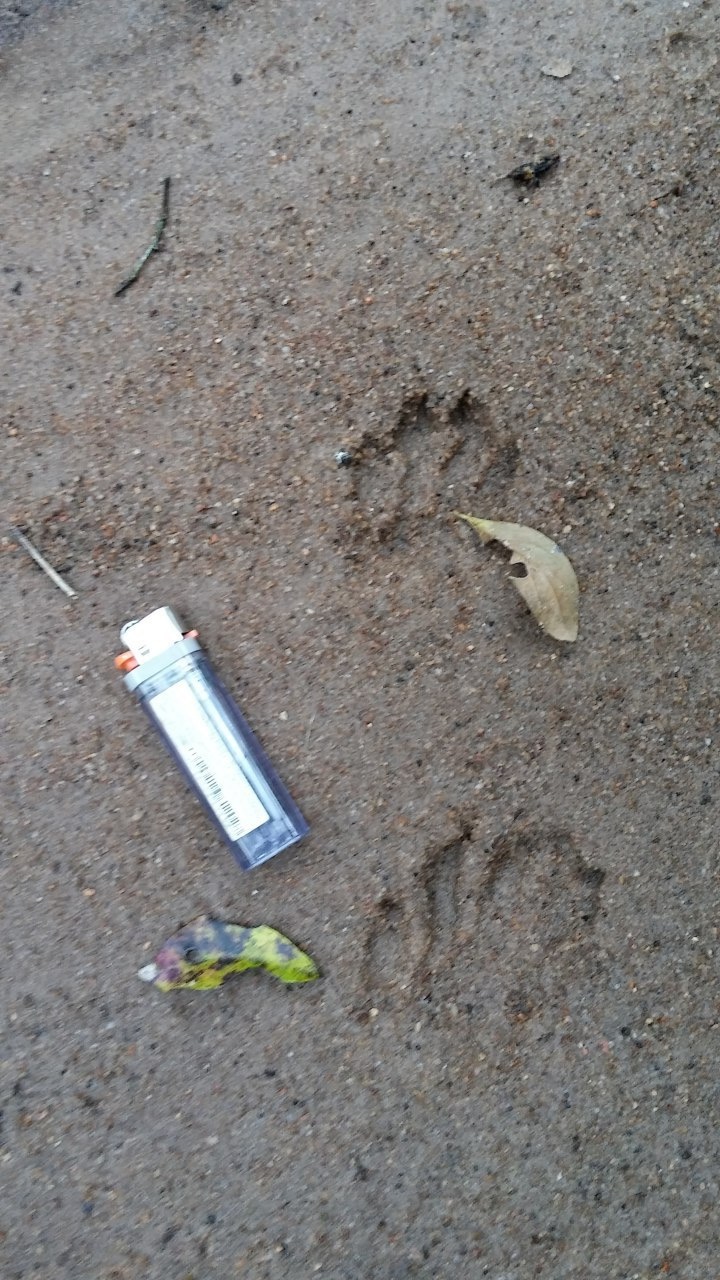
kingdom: Animalia
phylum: Chordata
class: Mammalia
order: Carnivora
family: Procyonidae
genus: Procyon
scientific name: Procyon cancrivorus
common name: Crab-eating raccoon
